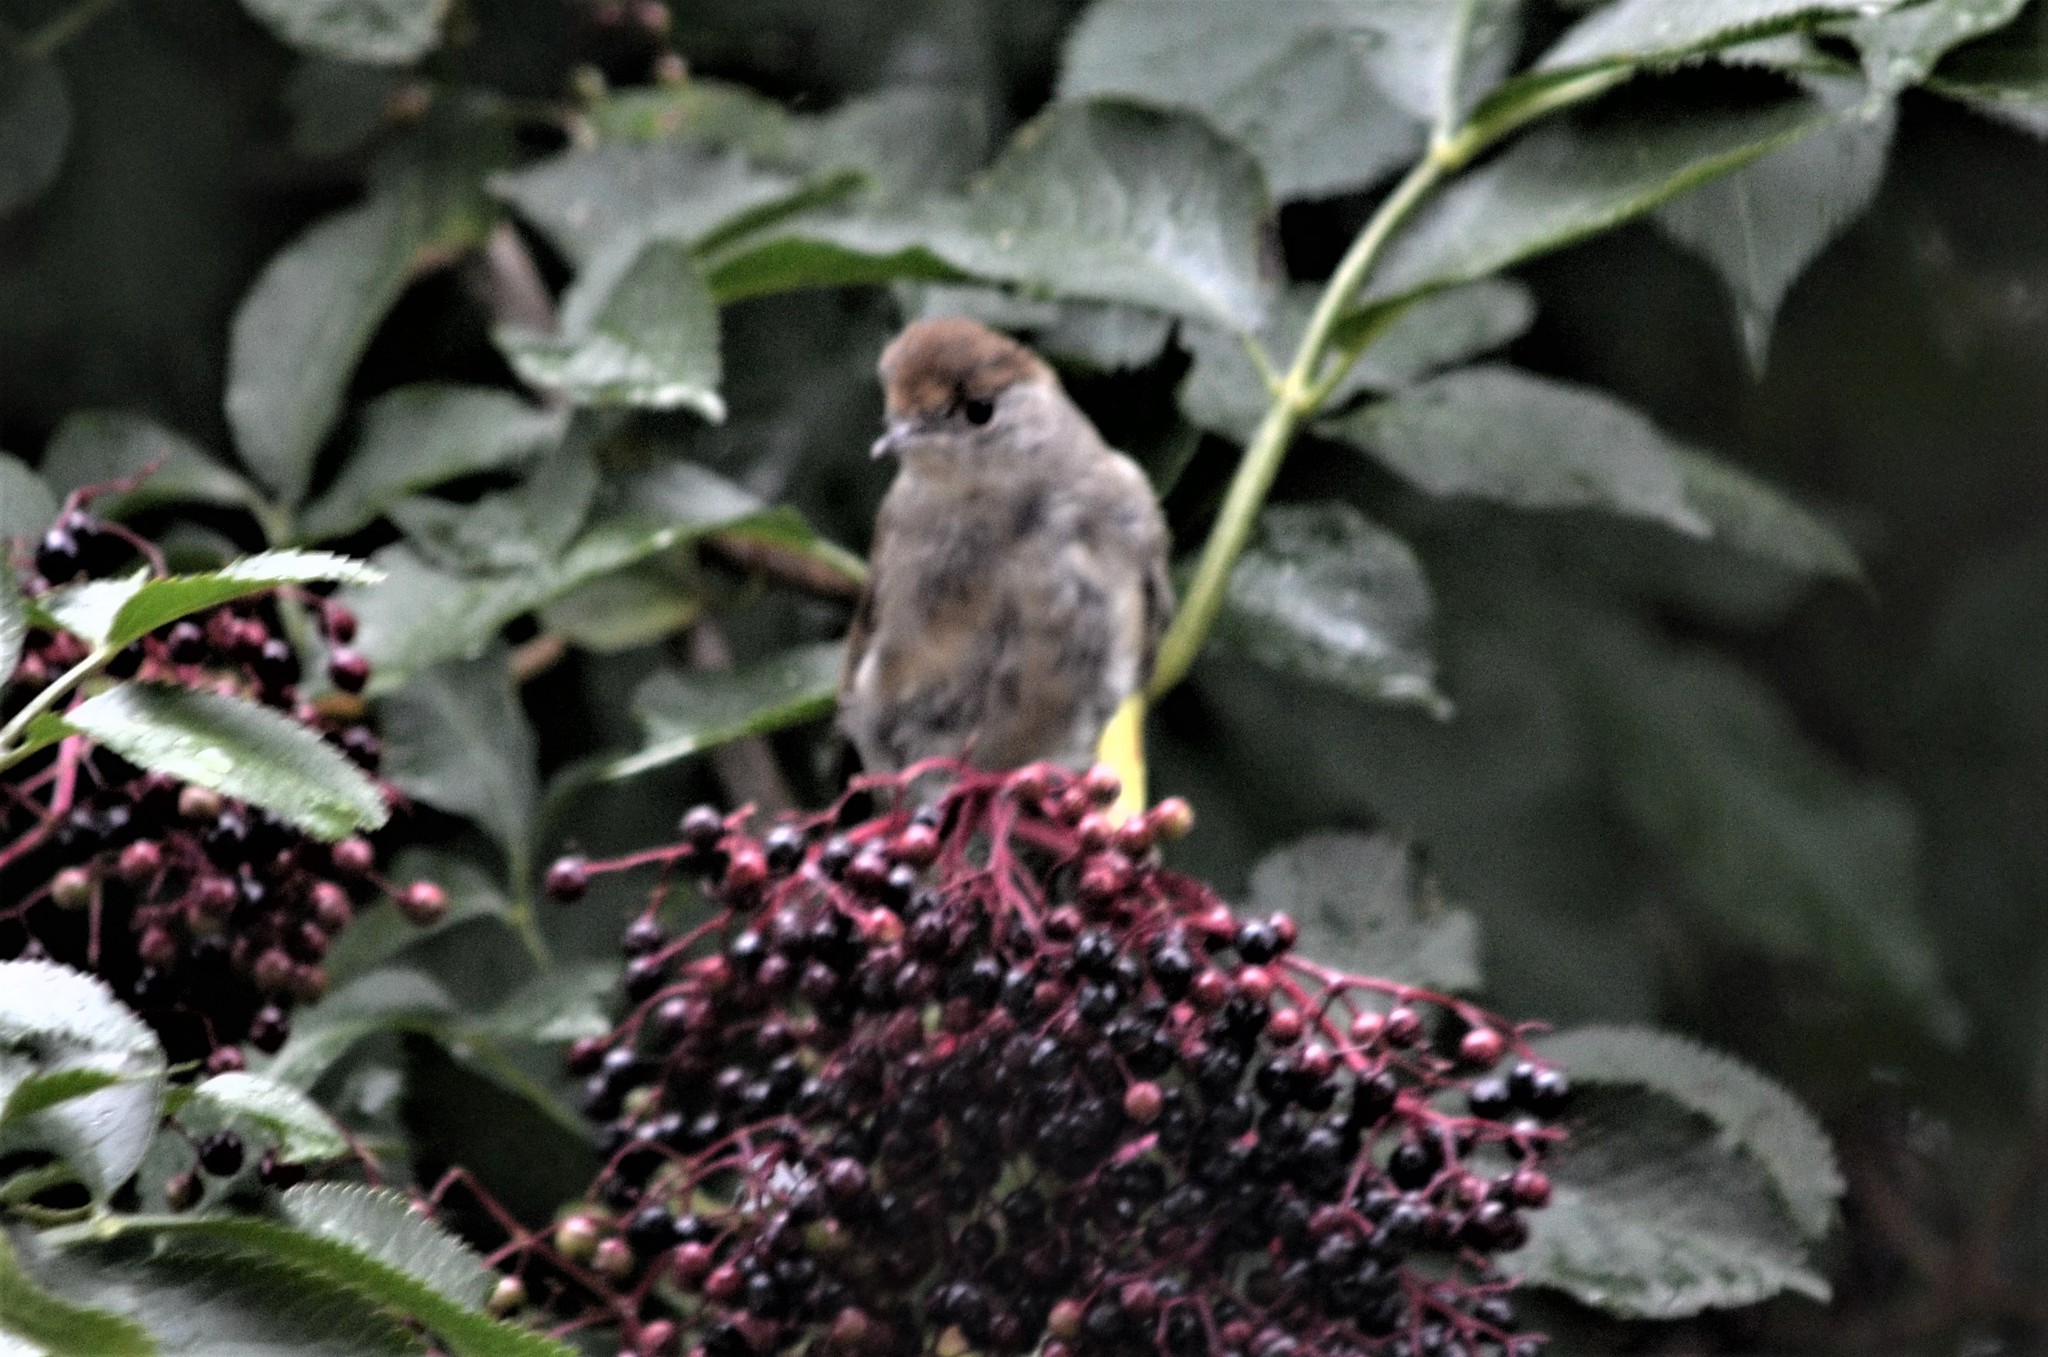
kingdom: Animalia
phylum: Chordata
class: Aves
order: Passeriformes
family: Sylviidae
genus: Sylvia
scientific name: Sylvia atricapilla
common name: Eurasian blackcap
